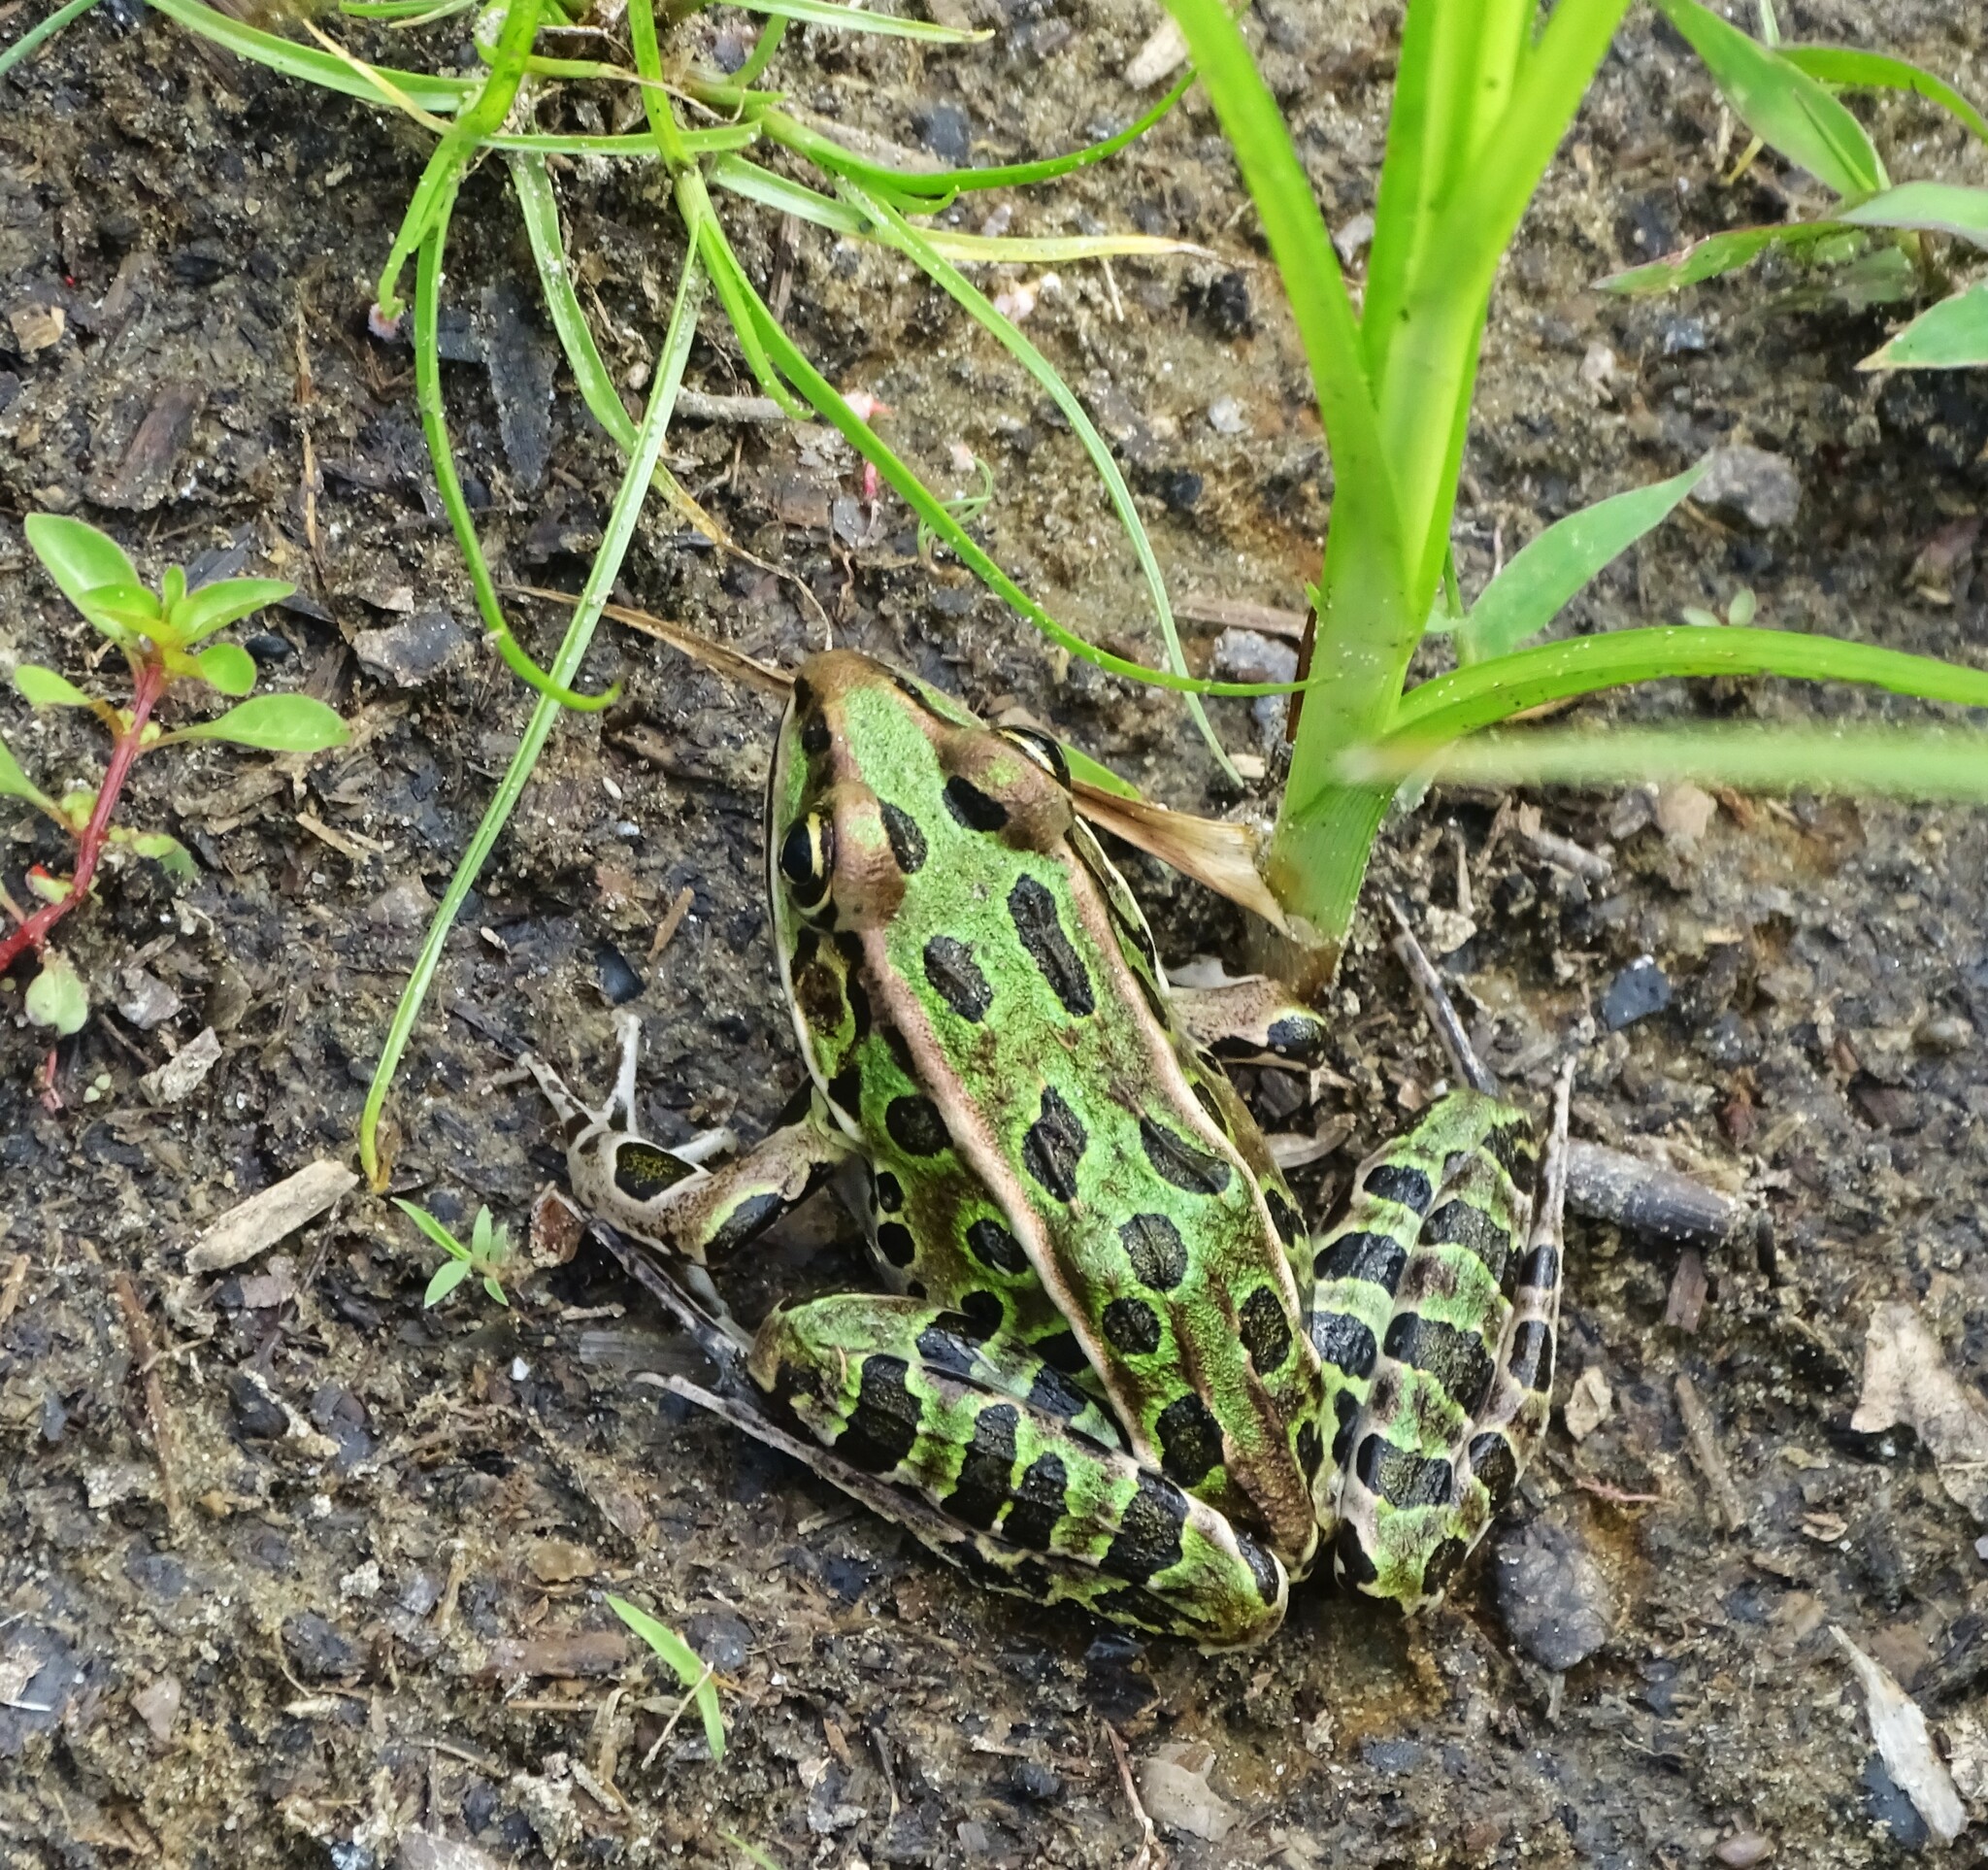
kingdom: Animalia
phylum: Chordata
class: Amphibia
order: Anura
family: Ranidae
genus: Lithobates
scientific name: Lithobates pipiens
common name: Northern leopard frog
